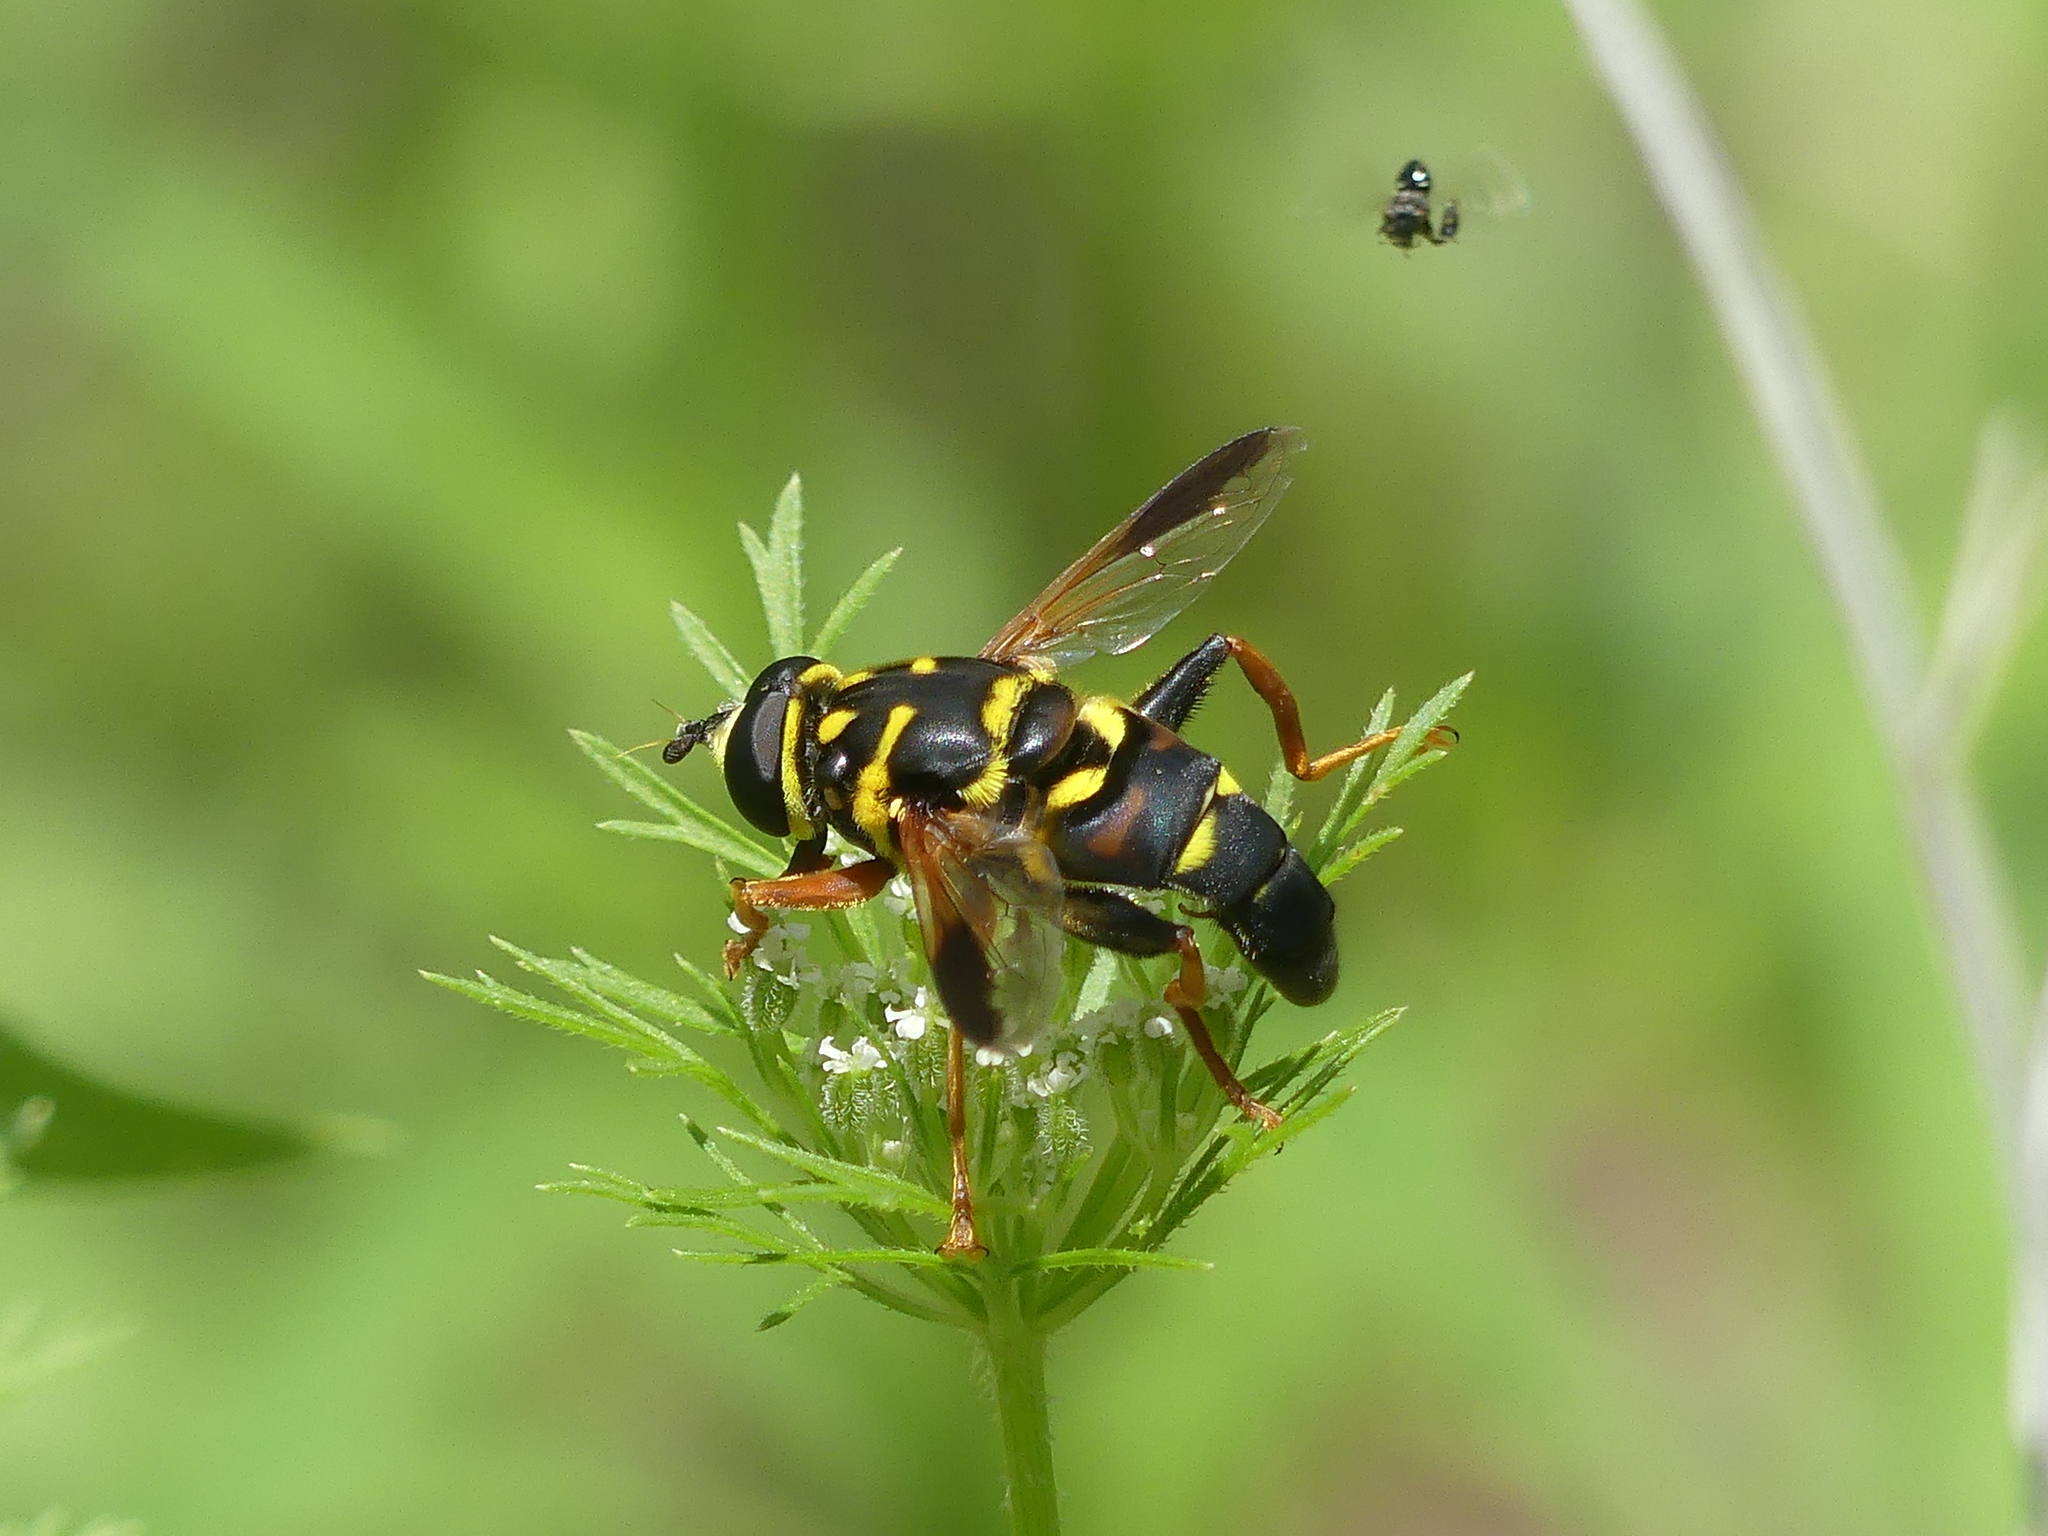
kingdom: Animalia
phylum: Arthropoda
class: Insecta
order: Diptera
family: Syrphidae
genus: Meromacrus
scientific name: Meromacrus acutus
